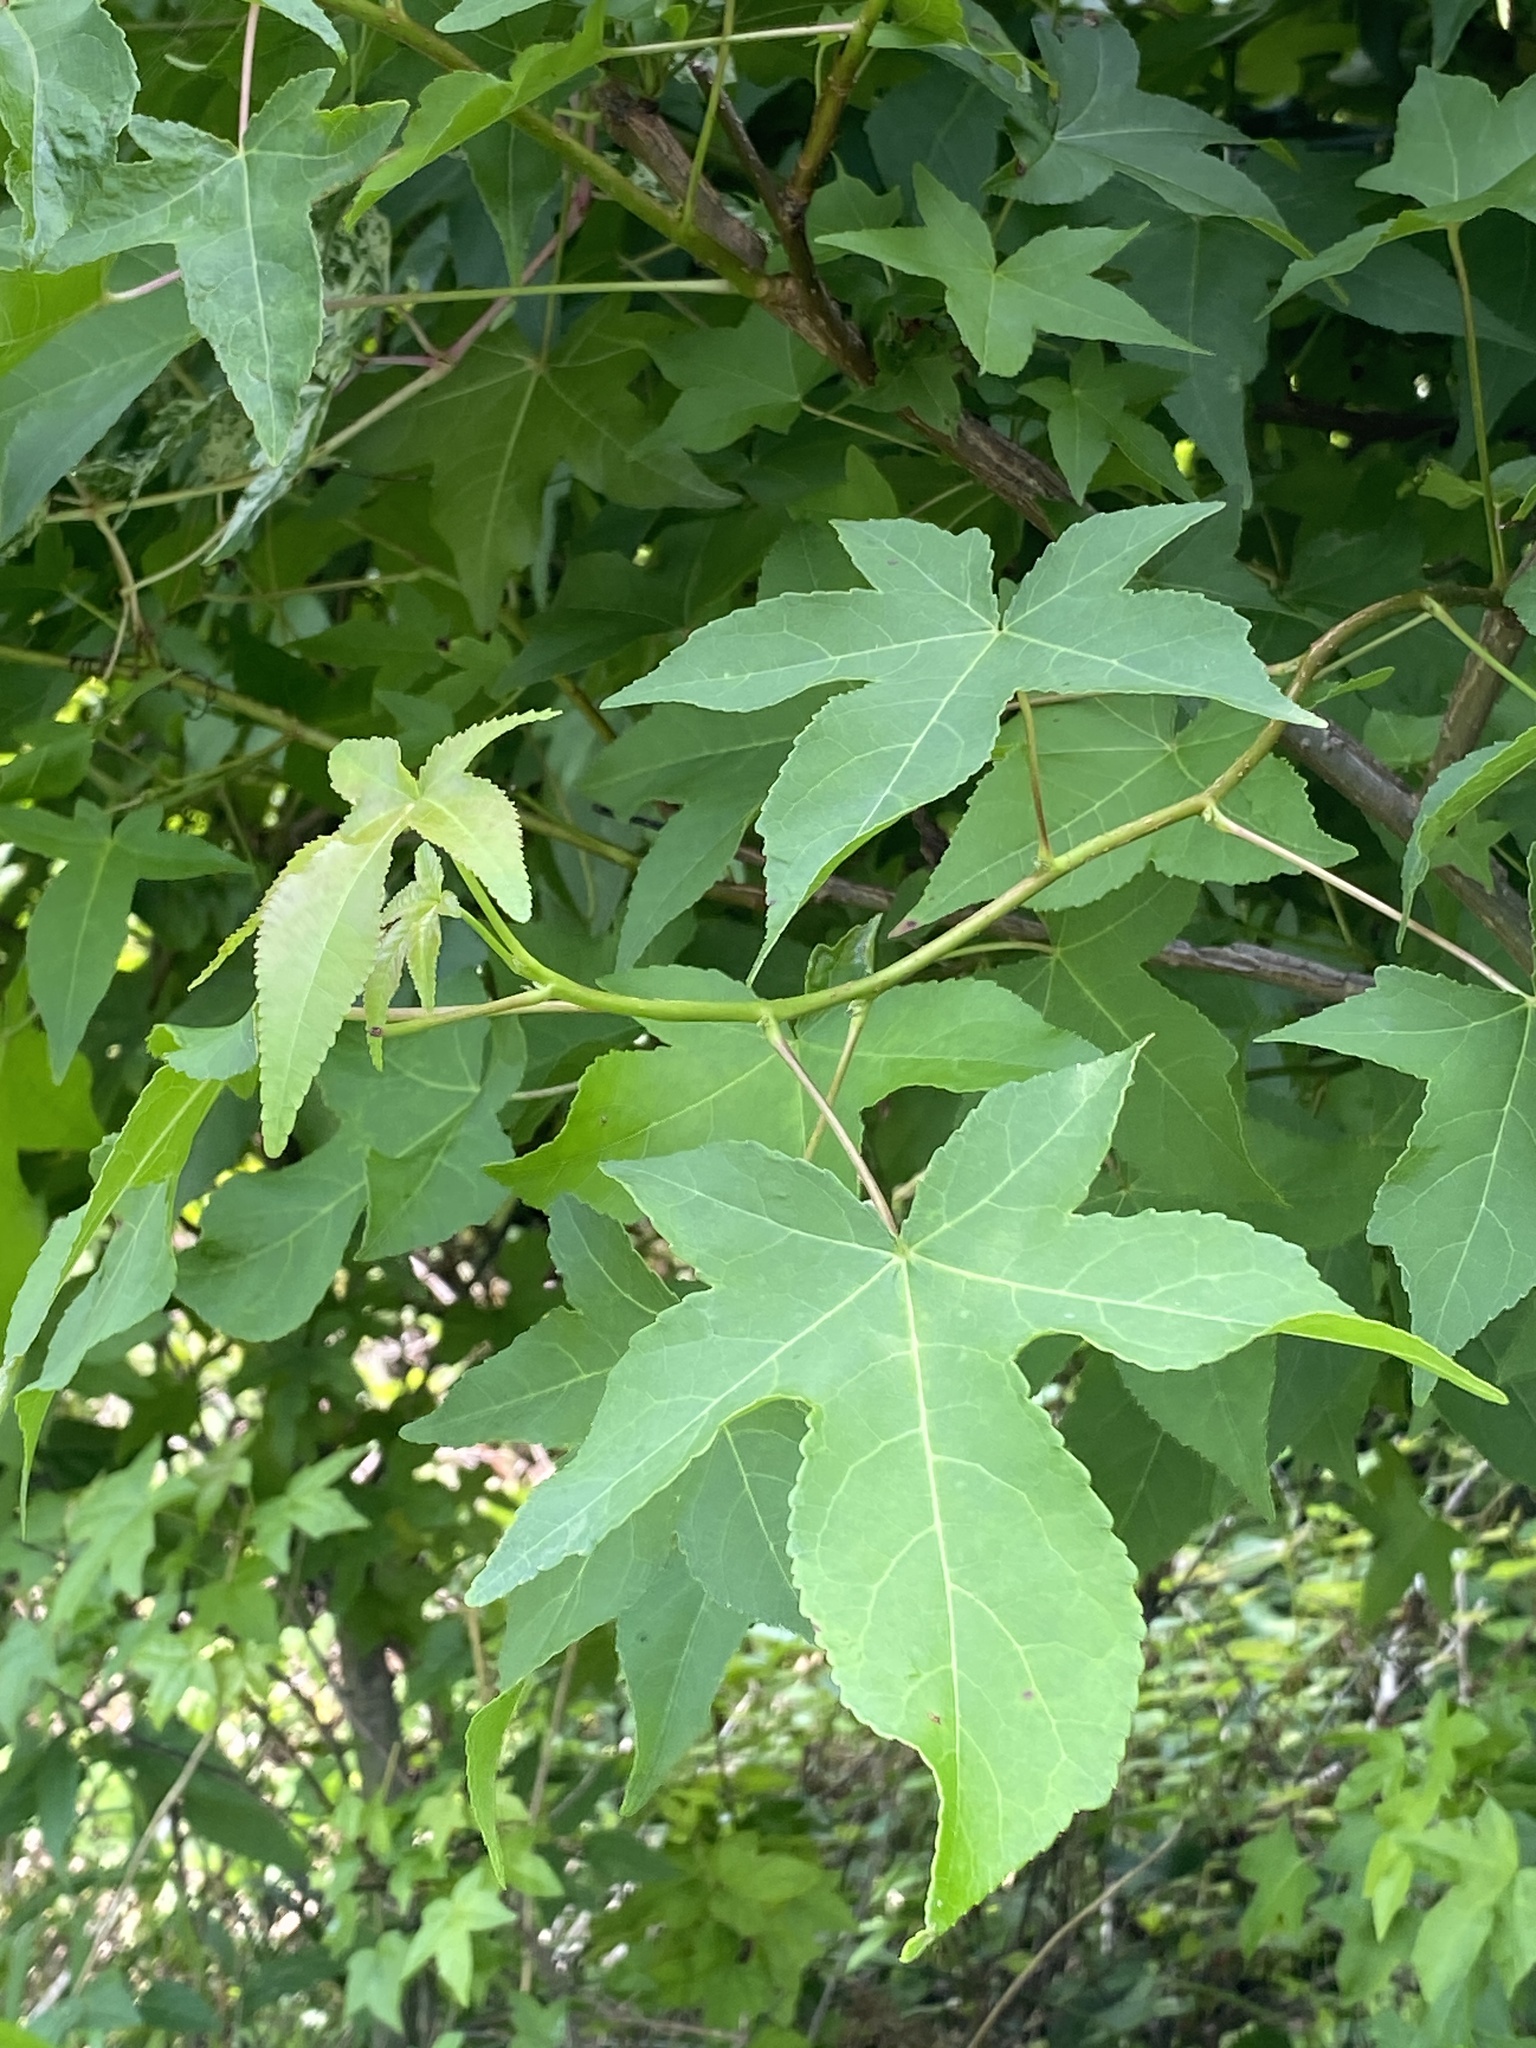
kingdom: Plantae
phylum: Tracheophyta
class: Magnoliopsida
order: Saxifragales
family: Altingiaceae
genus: Liquidambar
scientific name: Liquidambar styraciflua
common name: Sweet gum
